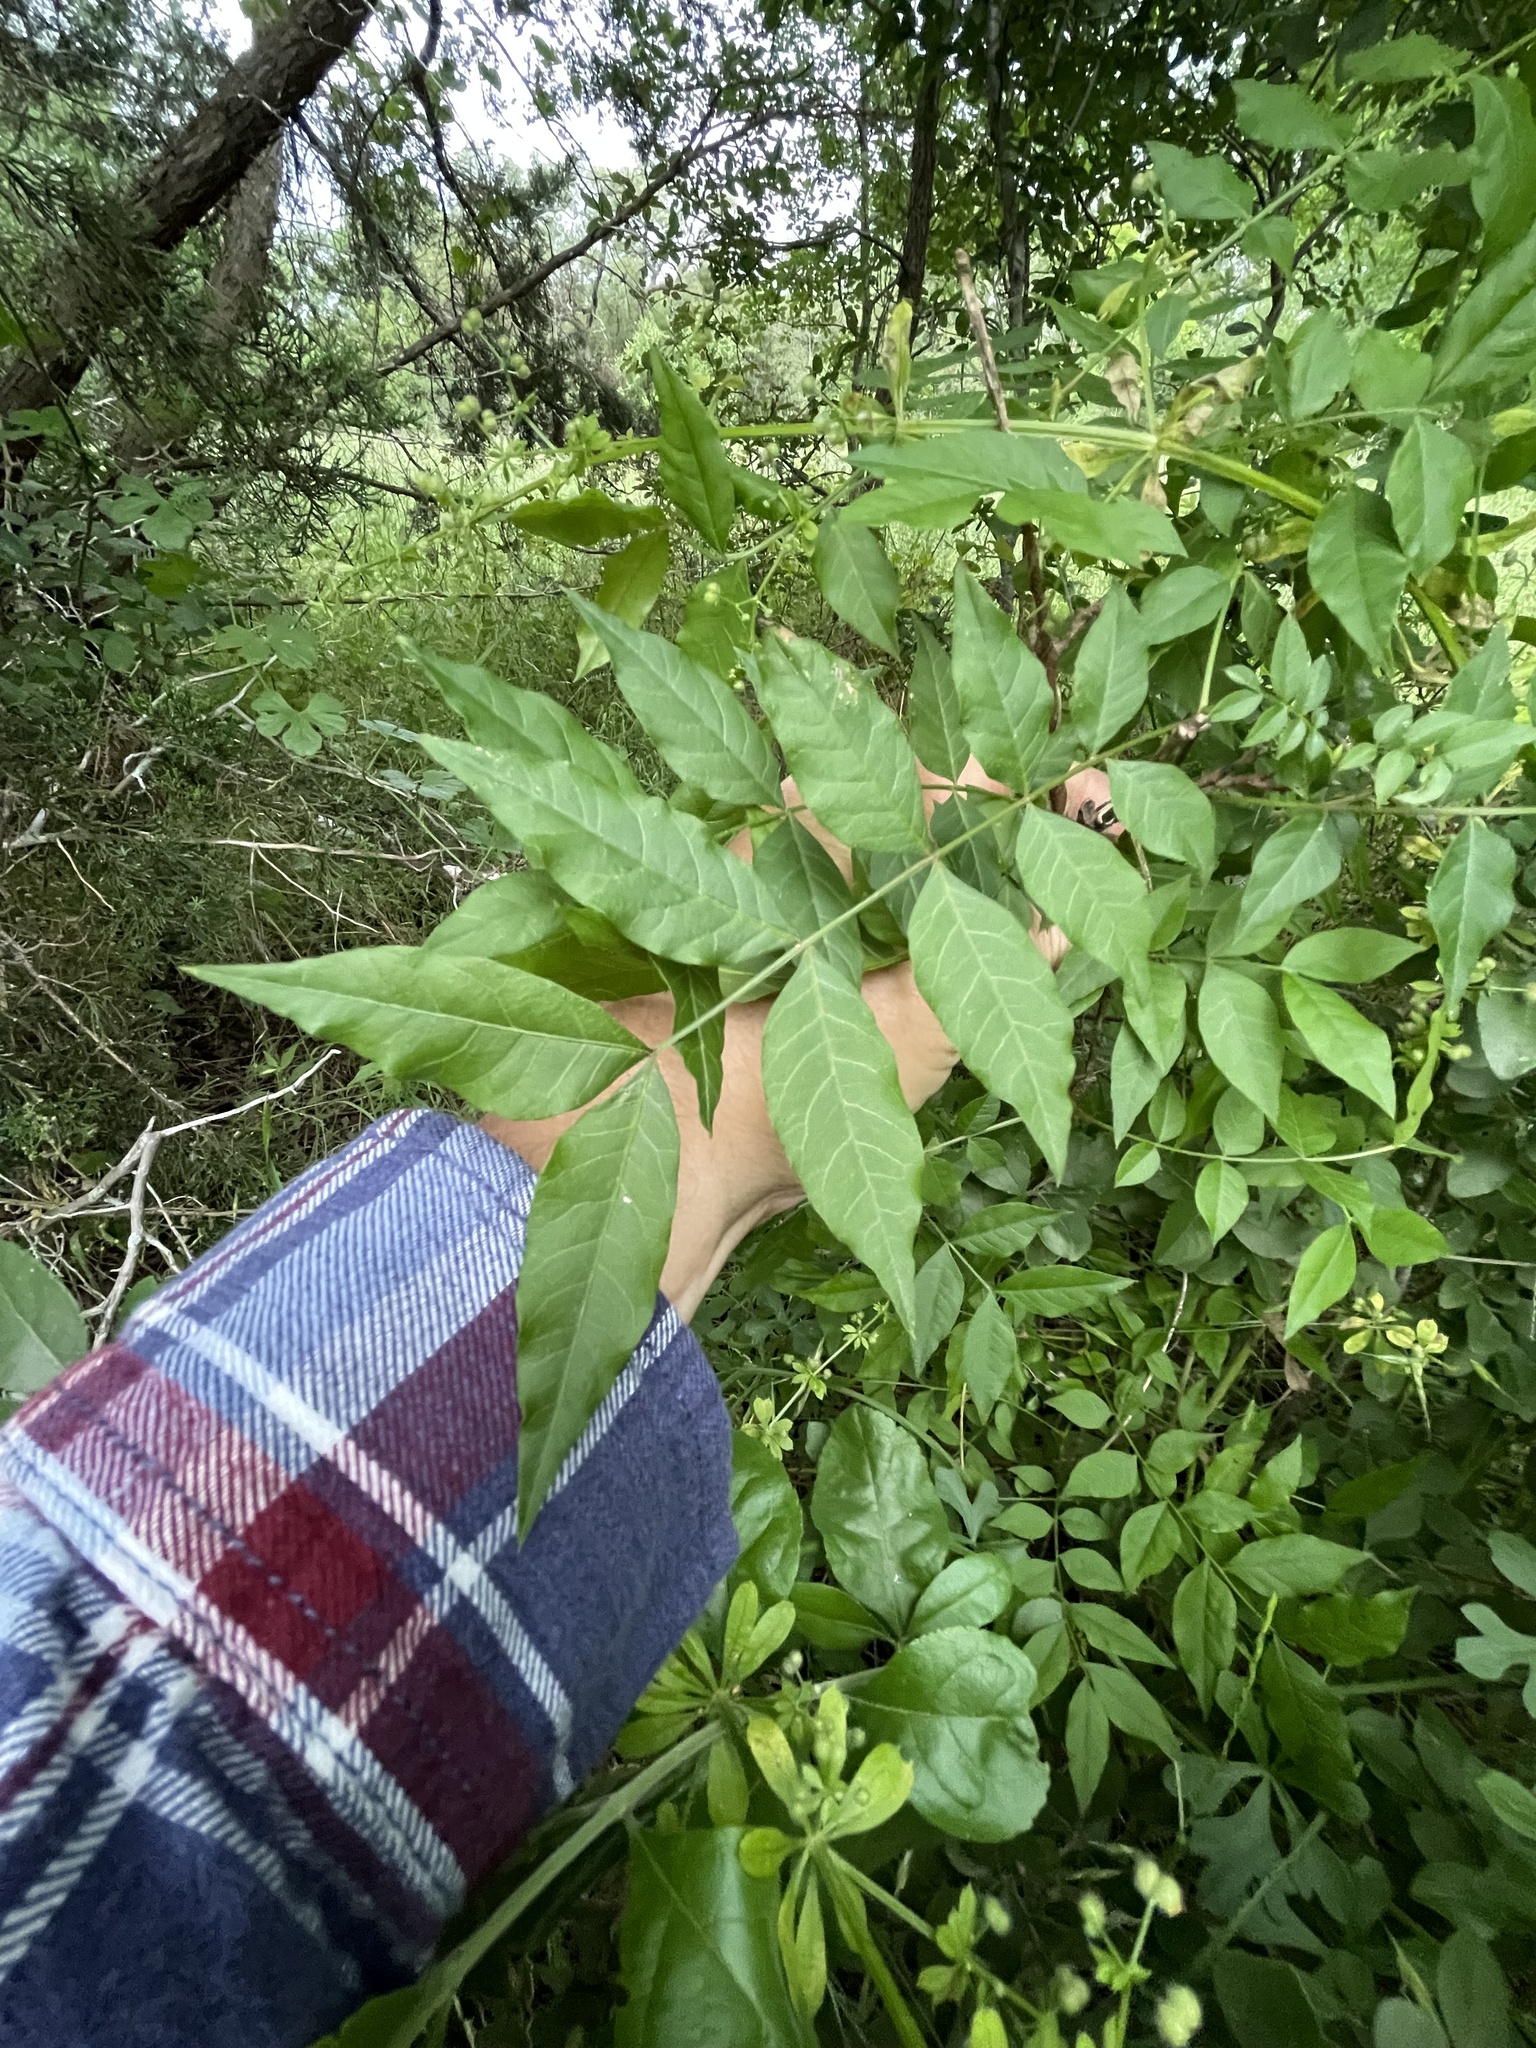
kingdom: Plantae
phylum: Tracheophyta
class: Magnoliopsida
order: Sapindales
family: Anacardiaceae
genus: Pistacia
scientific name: Pistacia chinensis
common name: Chinese pistache
